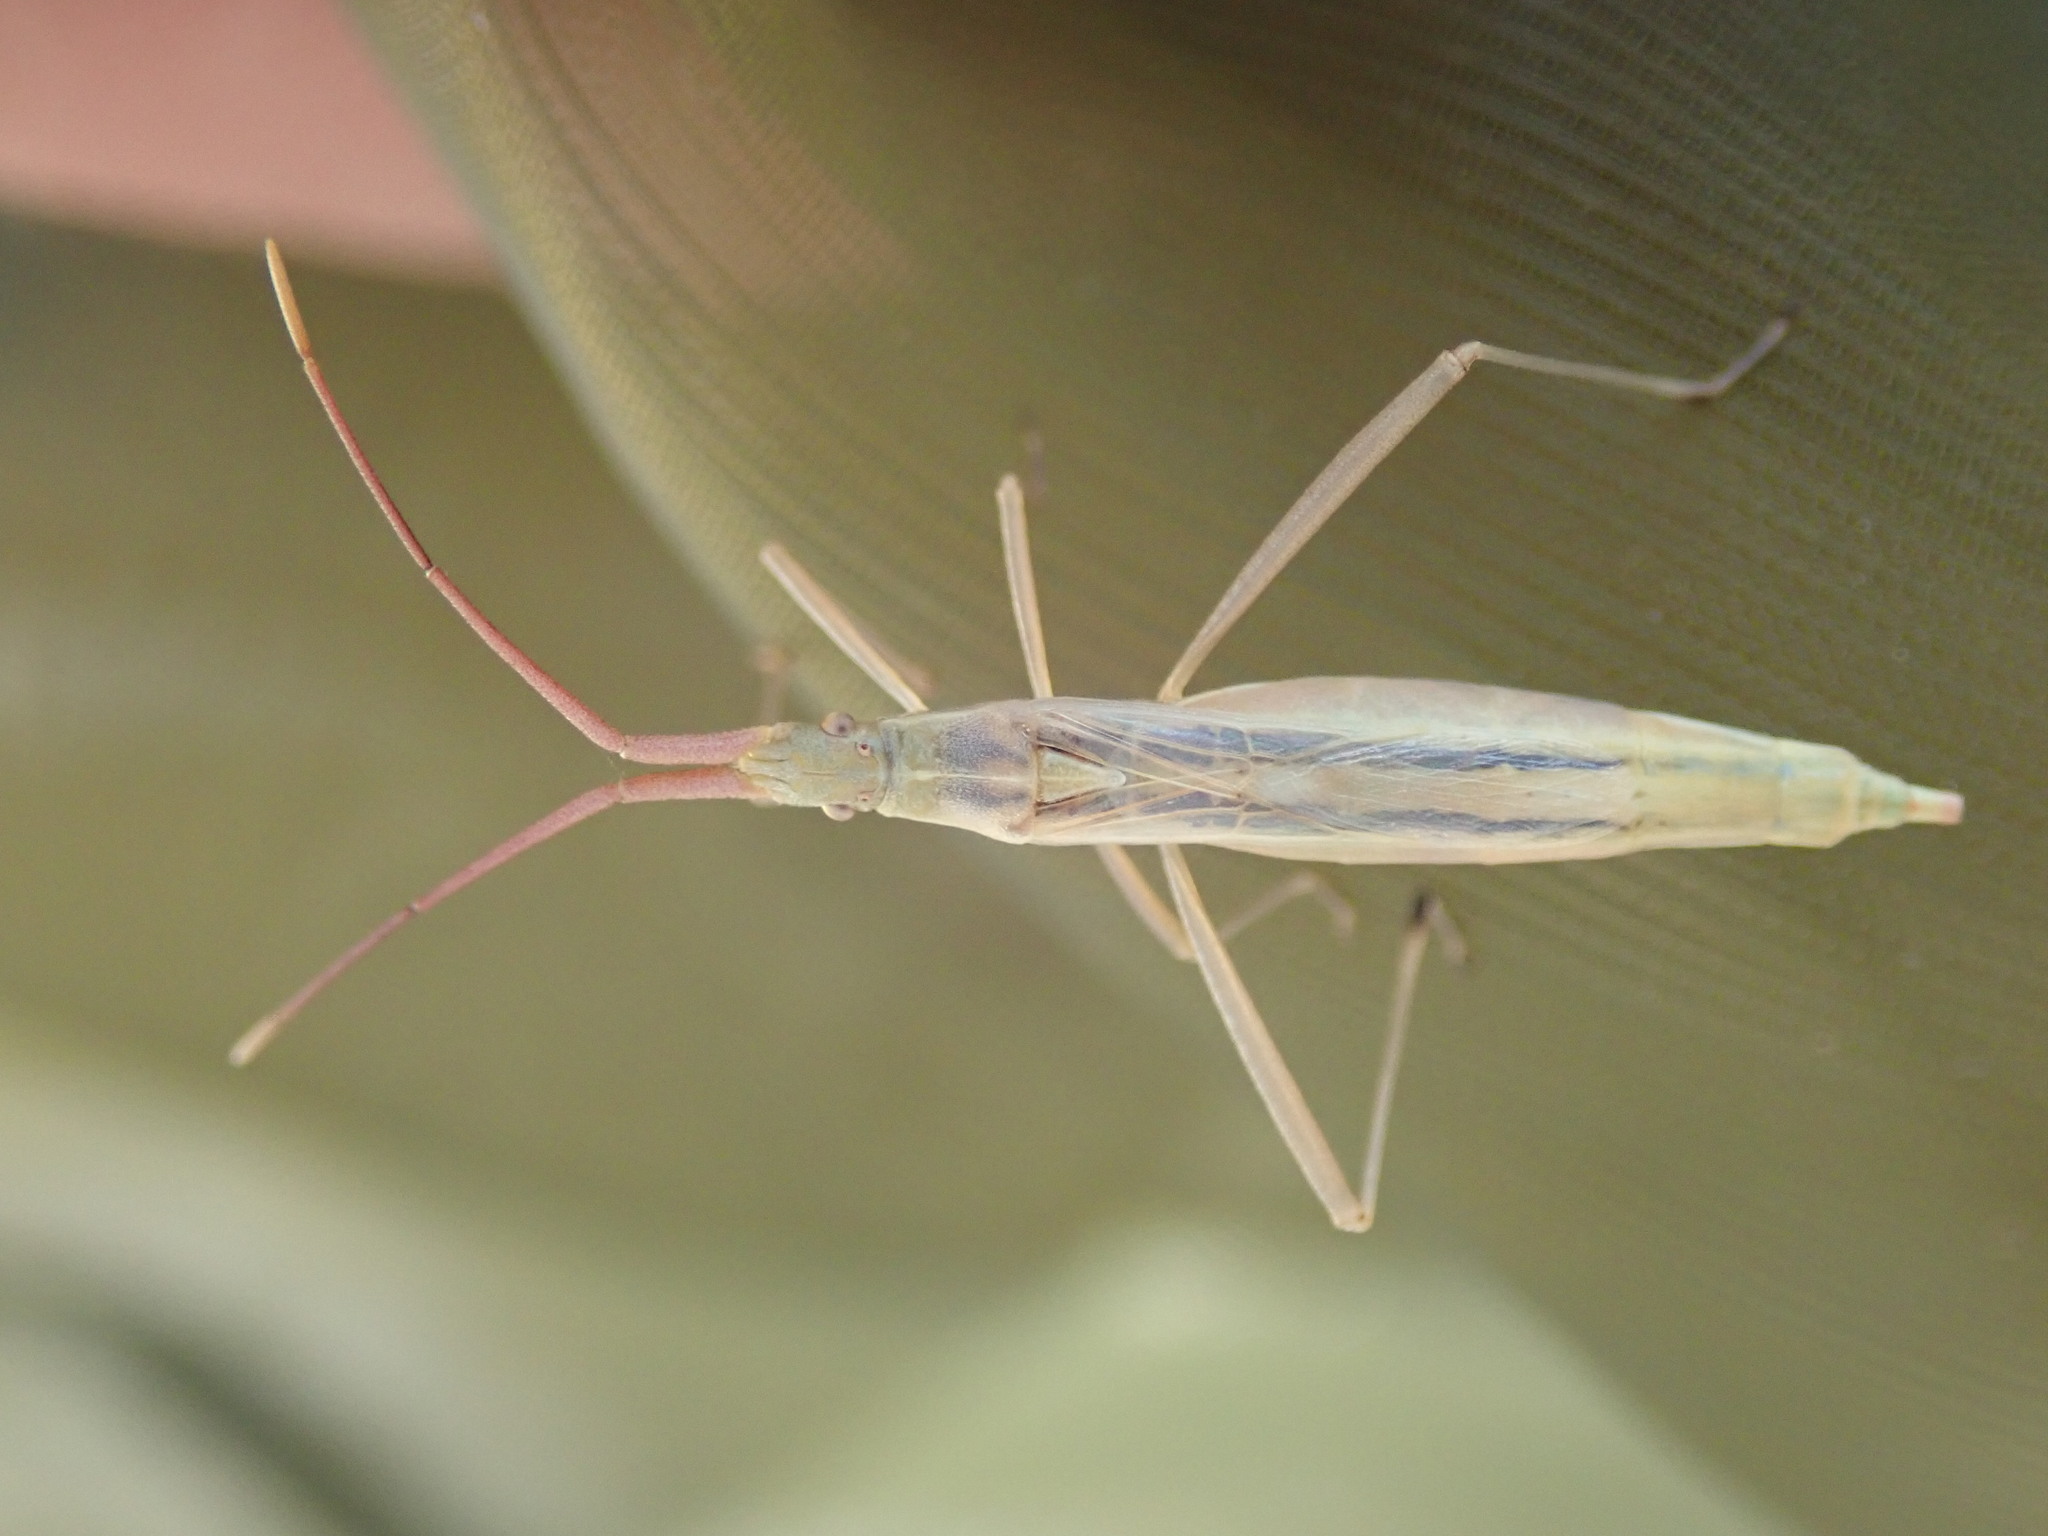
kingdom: Animalia
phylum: Arthropoda
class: Insecta
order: Hemiptera
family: Rhopalidae
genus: Chorosoma
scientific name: Chorosoma schillingii
